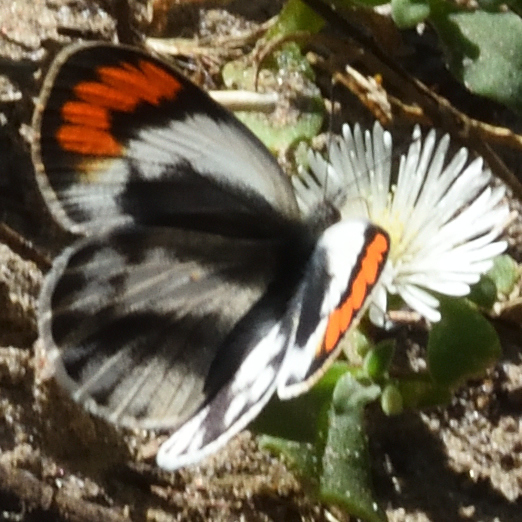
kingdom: Animalia
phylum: Arthropoda
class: Insecta
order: Lepidoptera
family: Pieridae
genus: Colotis
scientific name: Colotis euippe
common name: Round-winged orange tip
